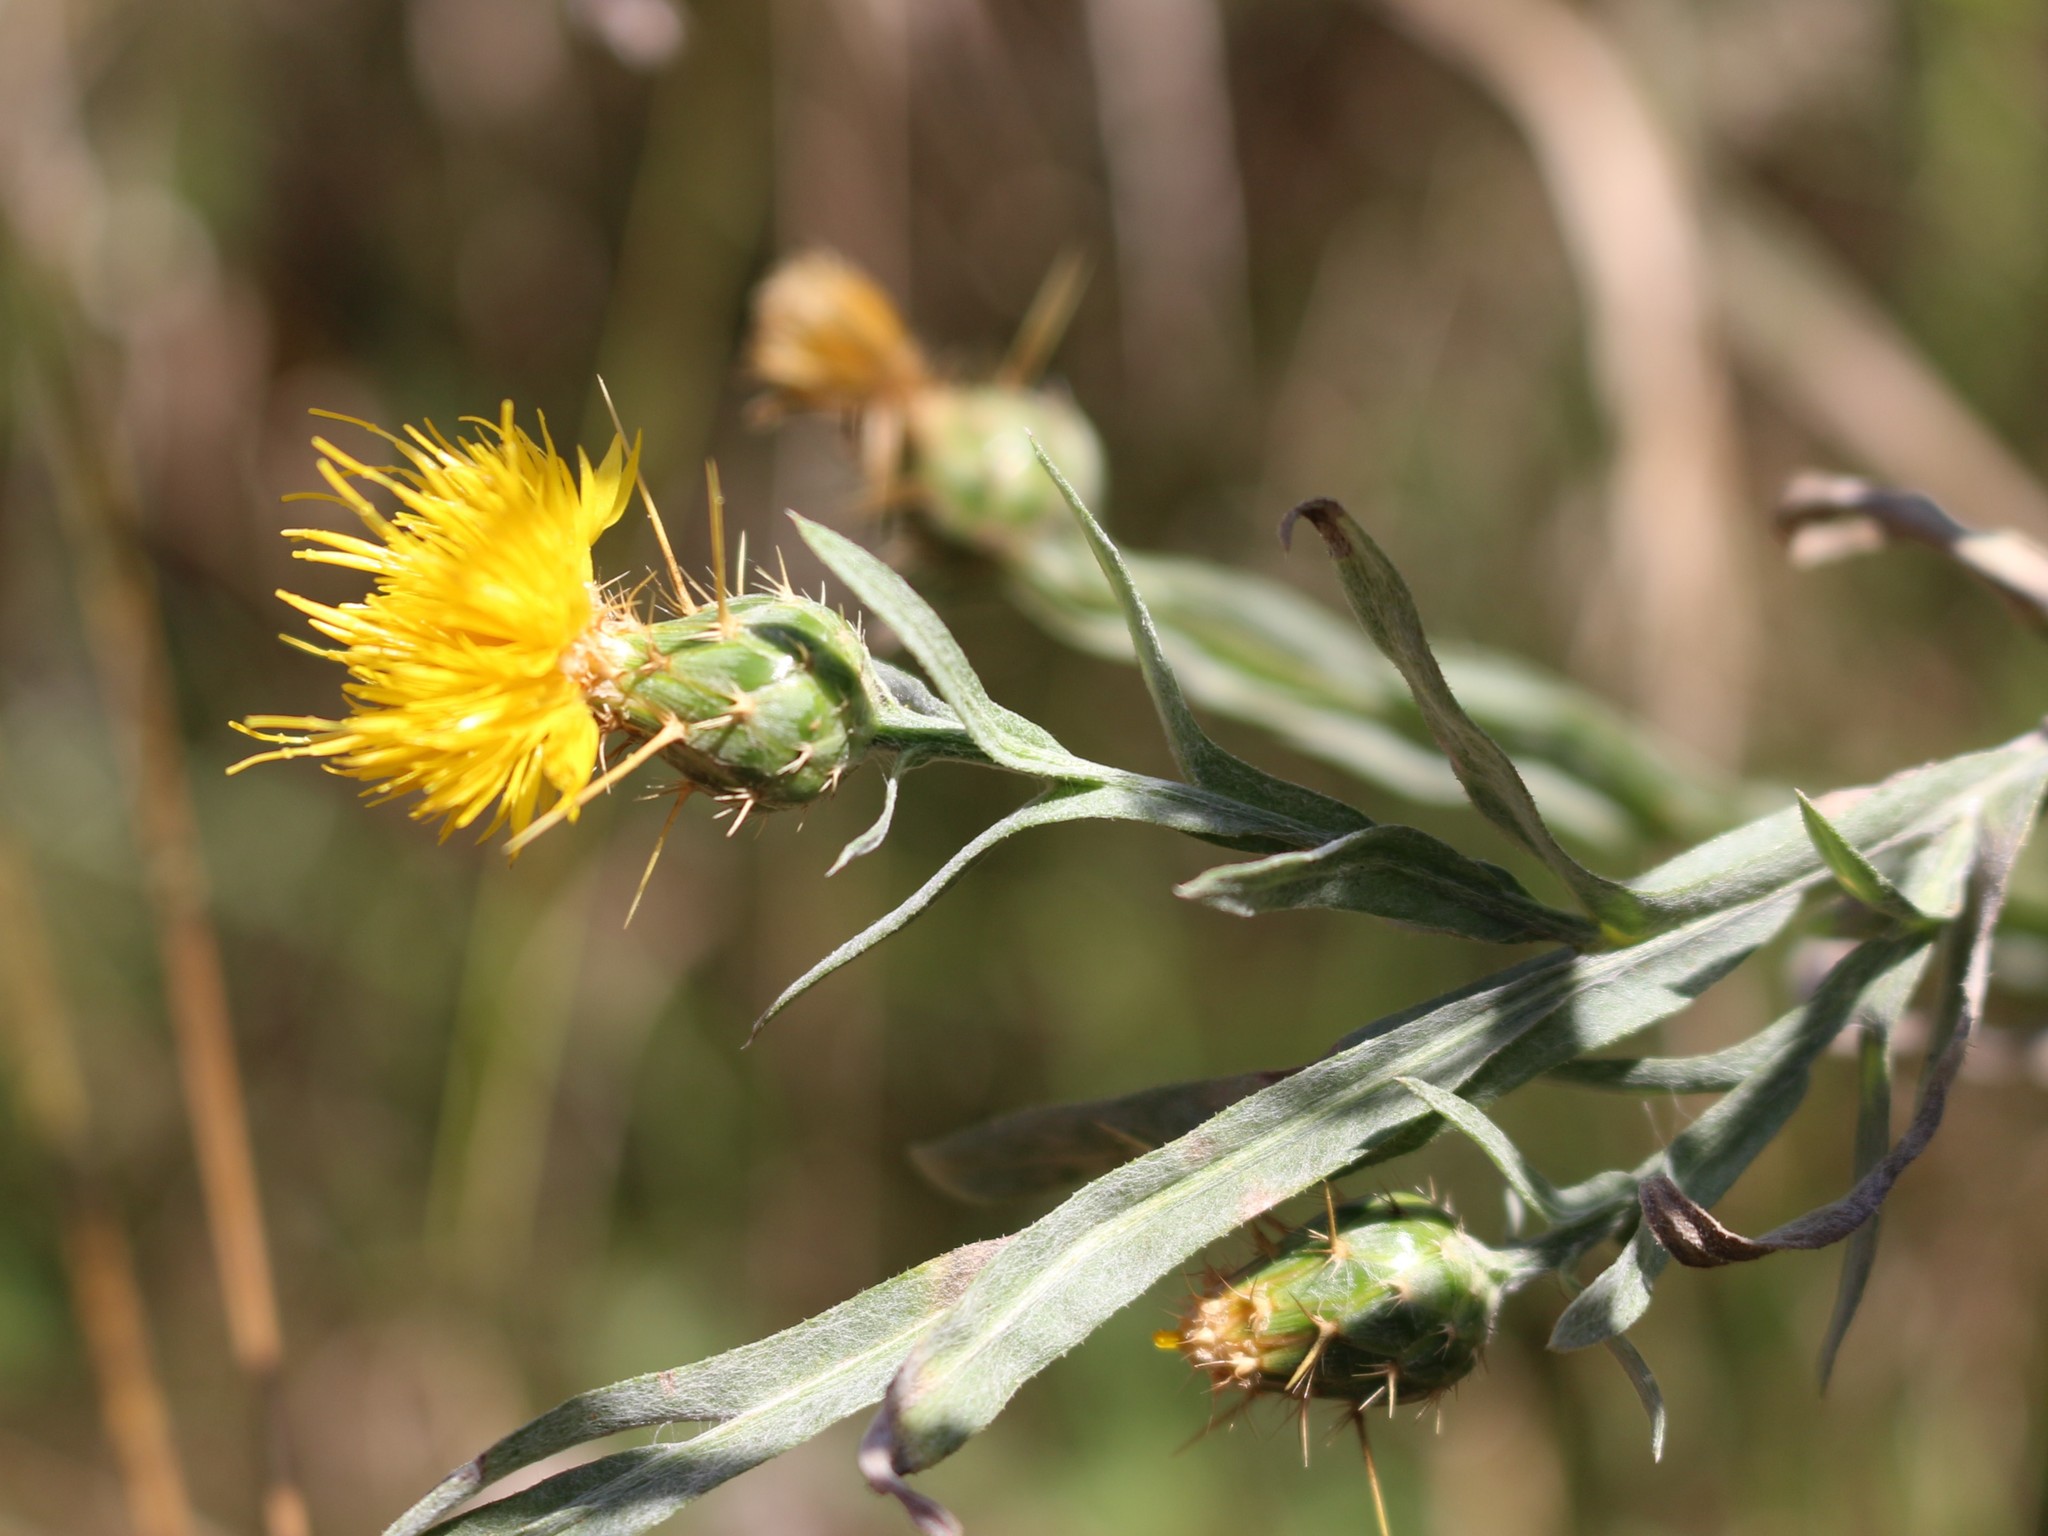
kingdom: Plantae
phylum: Tracheophyta
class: Magnoliopsida
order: Asterales
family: Asteraceae
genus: Centaurea
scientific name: Centaurea solstitialis
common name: Yellow star-thistle
